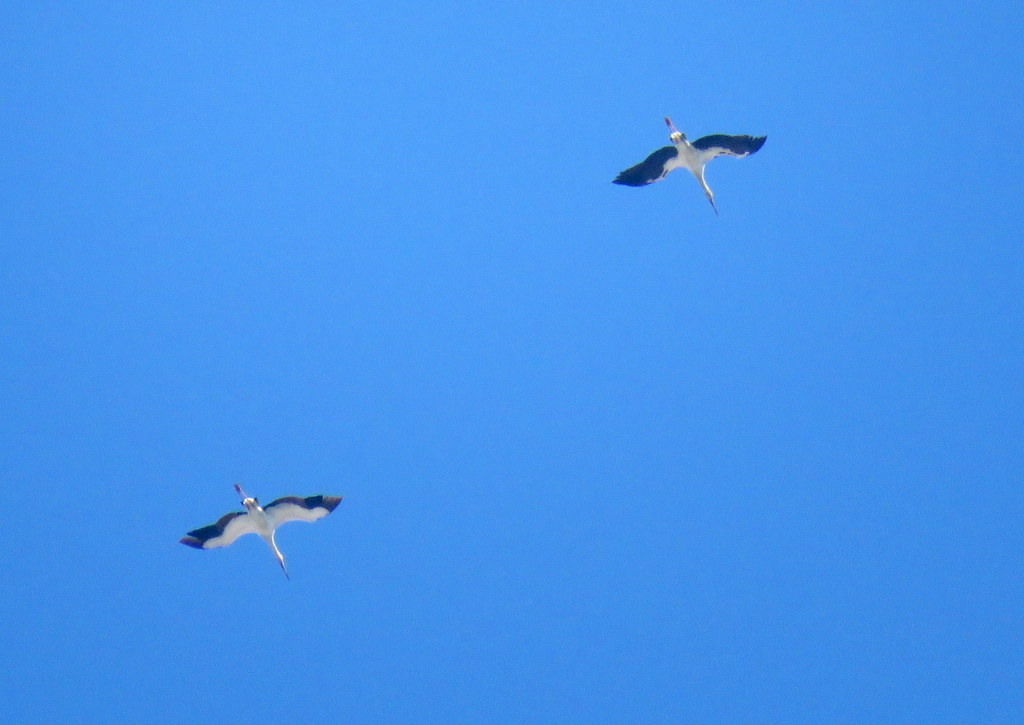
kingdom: Animalia
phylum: Chordata
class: Aves
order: Ciconiiformes
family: Ciconiidae
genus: Ciconia
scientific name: Ciconia maguari
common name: Maguari stork
